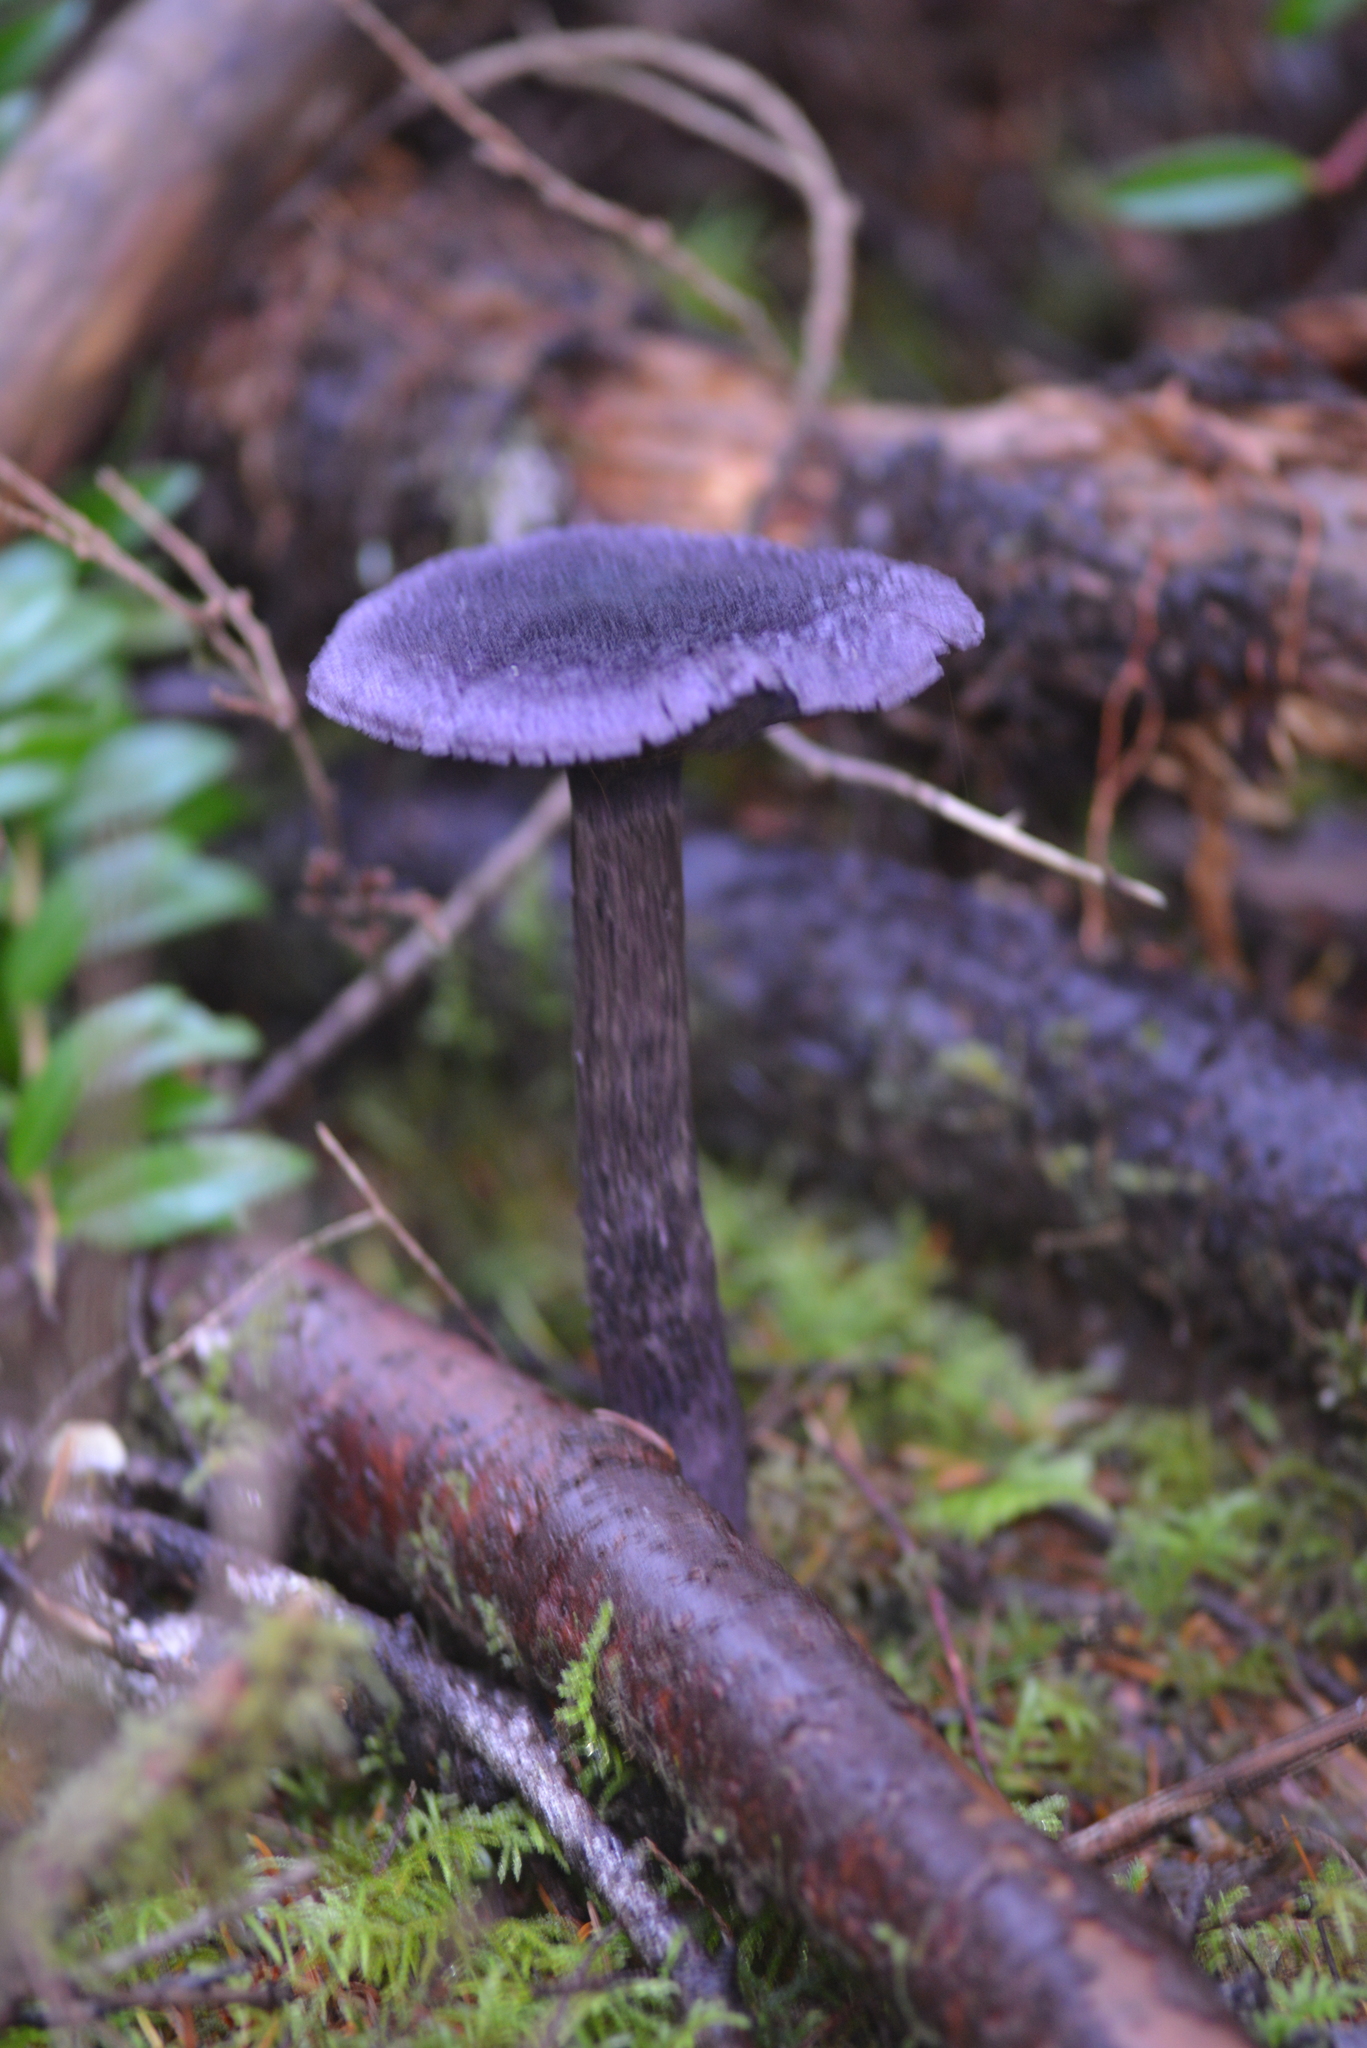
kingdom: Fungi
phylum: Basidiomycota
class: Agaricomycetes
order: Agaricales
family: Cortinariaceae
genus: Cortinarius
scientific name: Cortinarius violaceus
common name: Violet webcap
